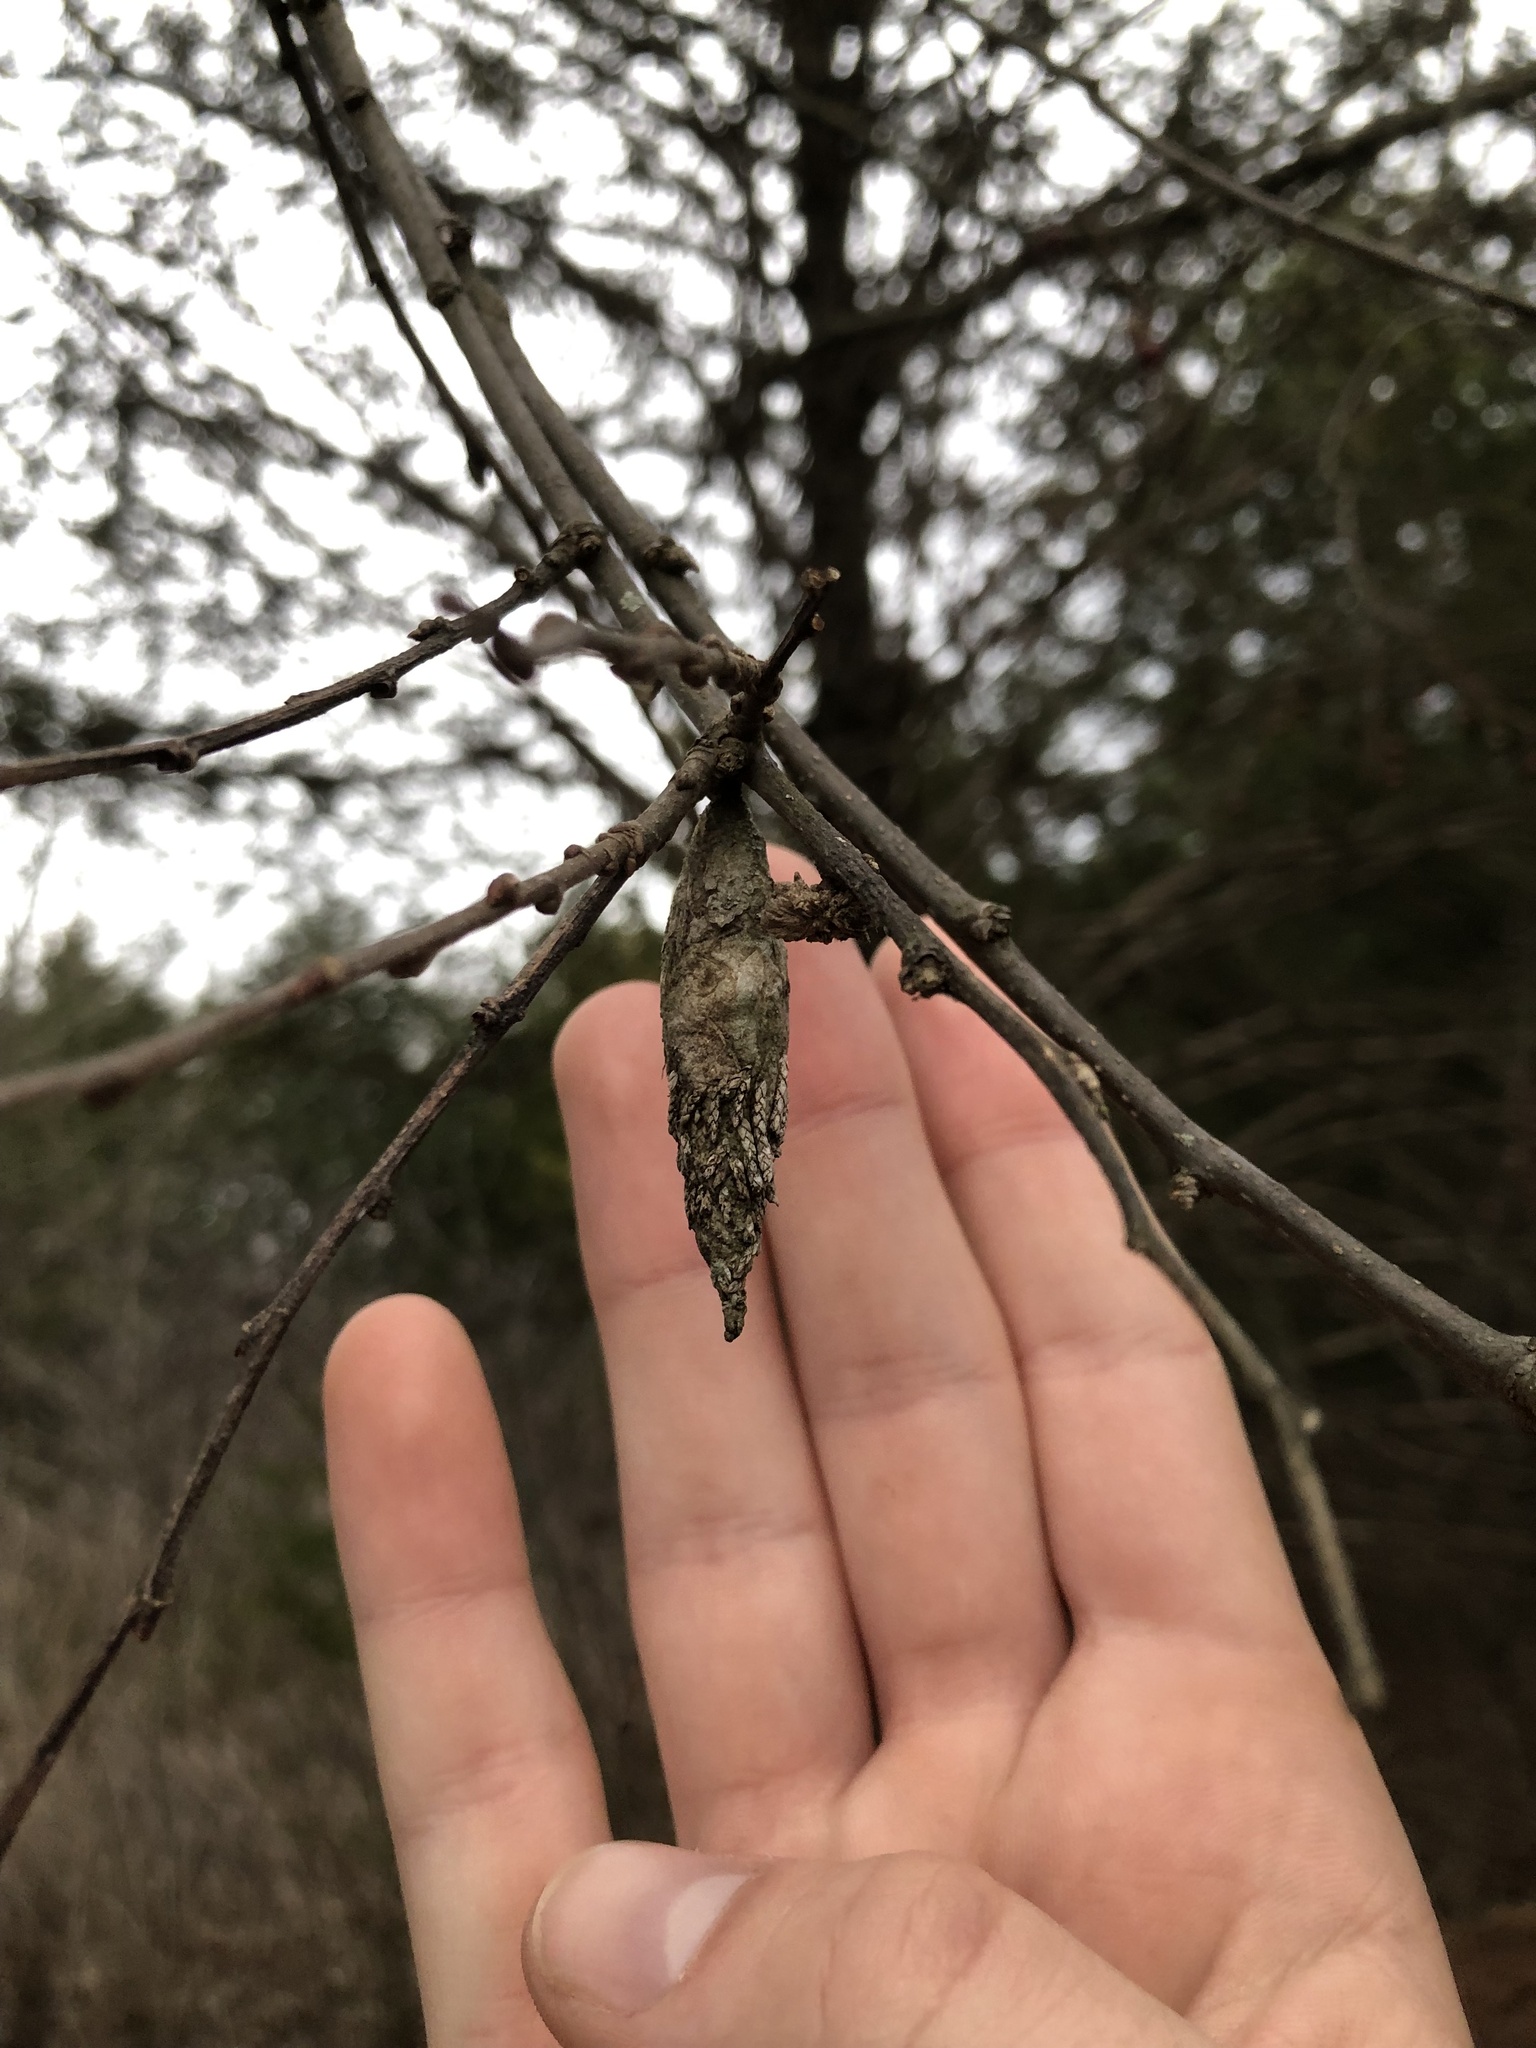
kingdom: Animalia
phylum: Arthropoda
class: Insecta
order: Lepidoptera
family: Psychidae
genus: Thyridopteryx
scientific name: Thyridopteryx ephemeraeformis
